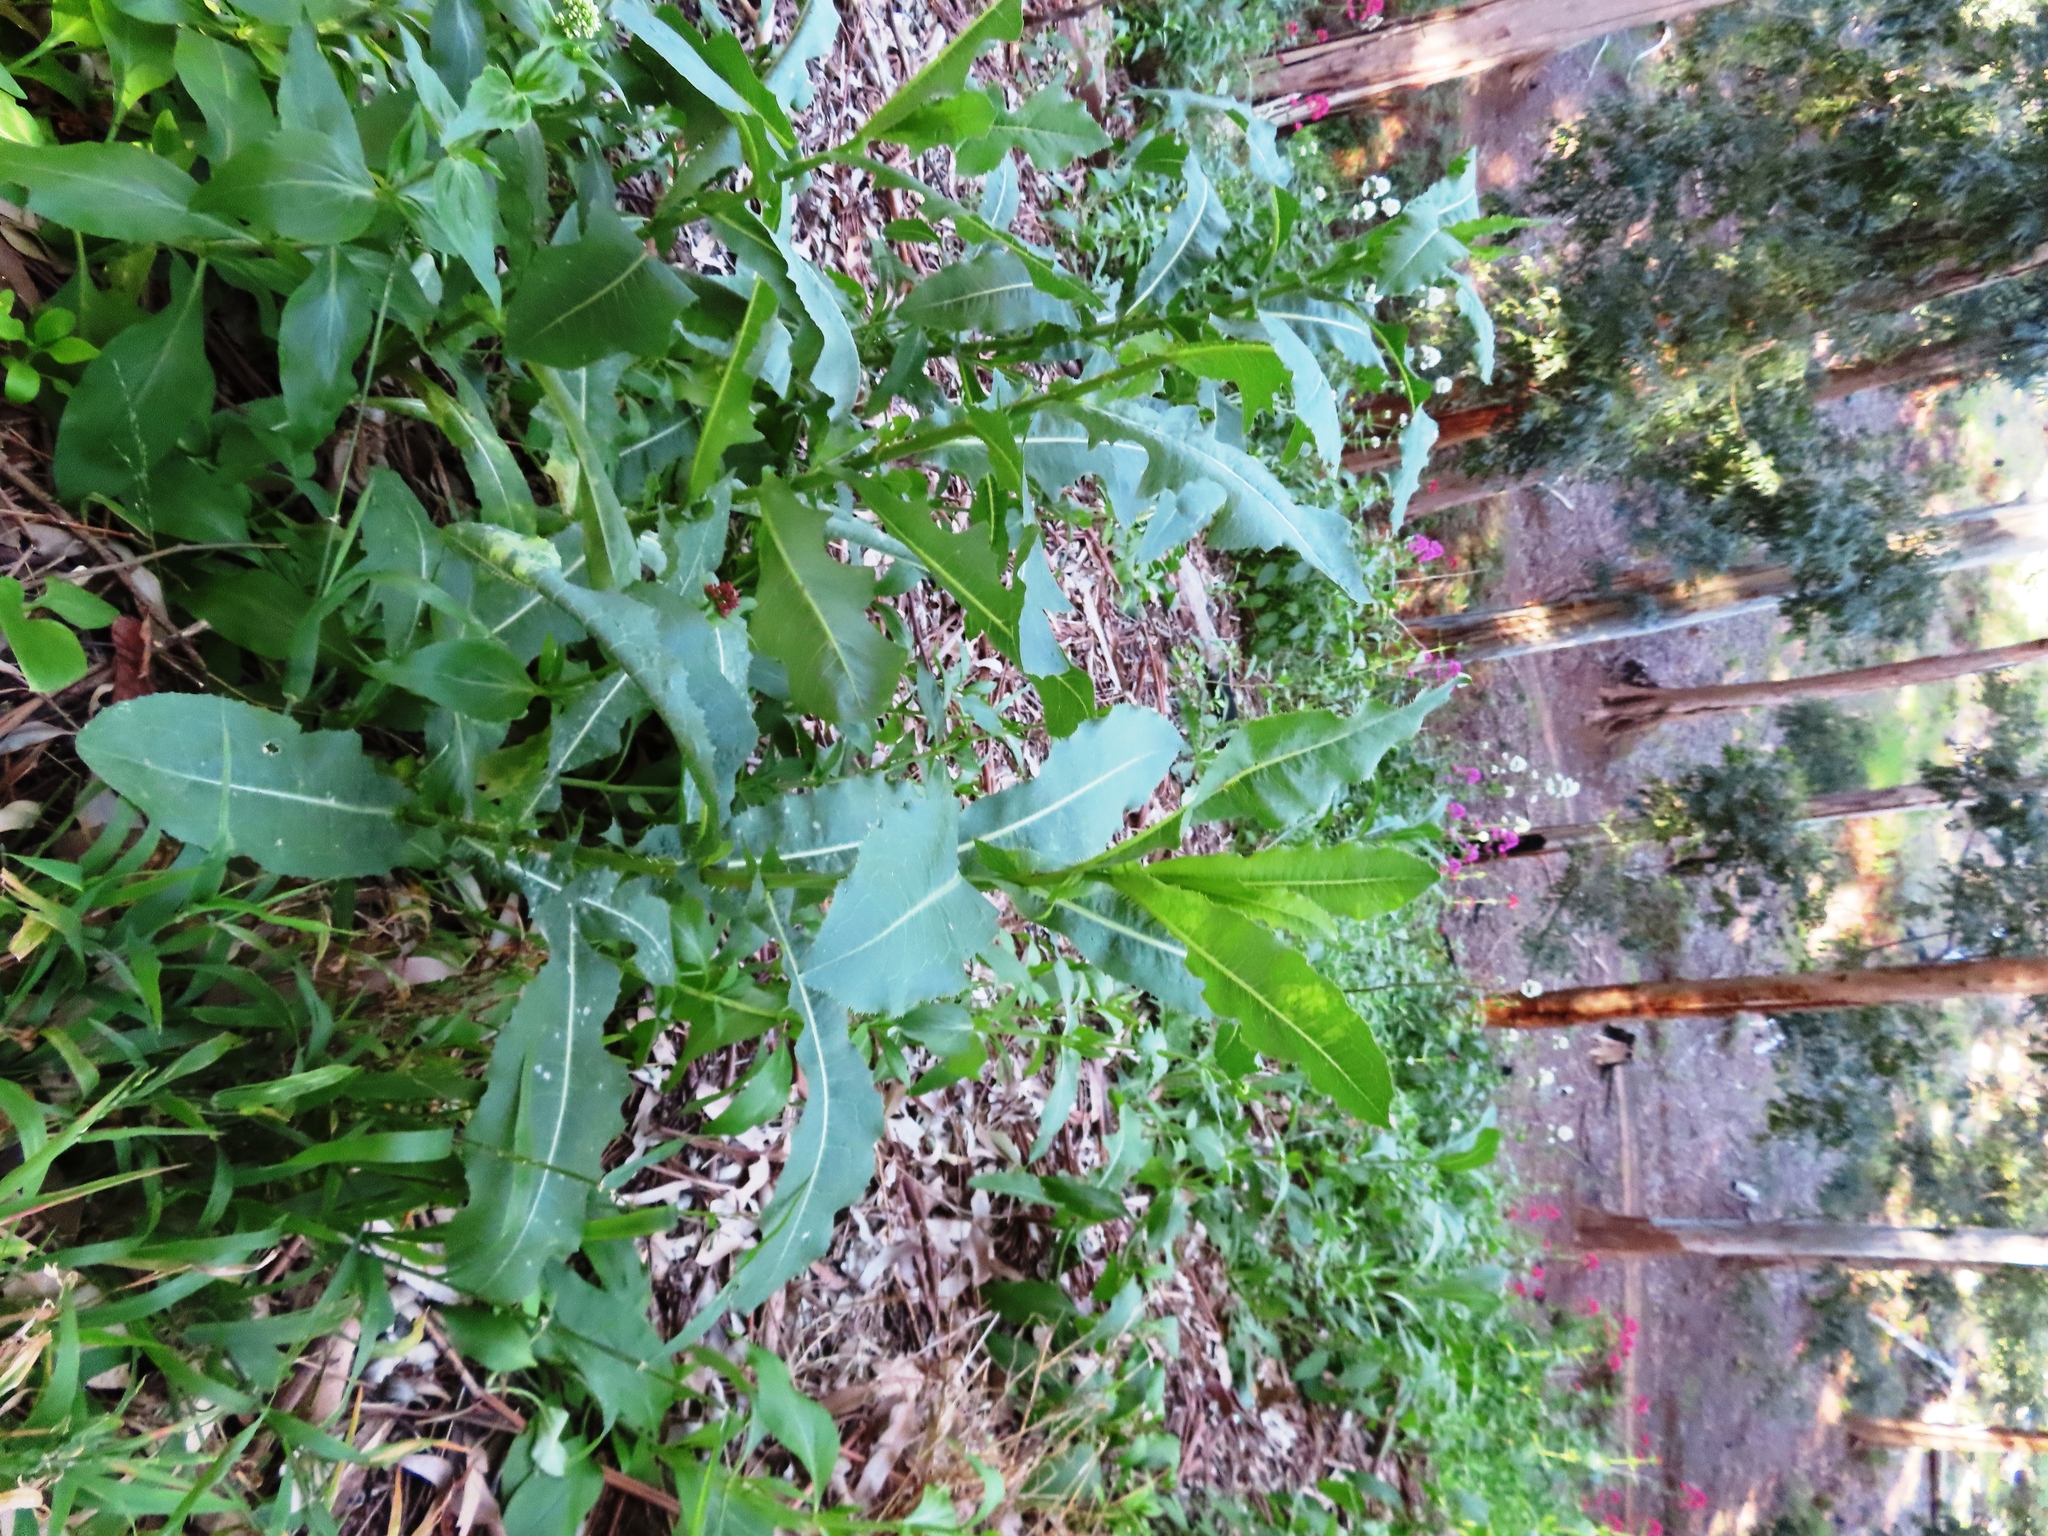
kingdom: Plantae
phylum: Tracheophyta
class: Magnoliopsida
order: Asterales
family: Asteraceae
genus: Lactuca
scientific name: Lactuca serriola
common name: Prickly lettuce
